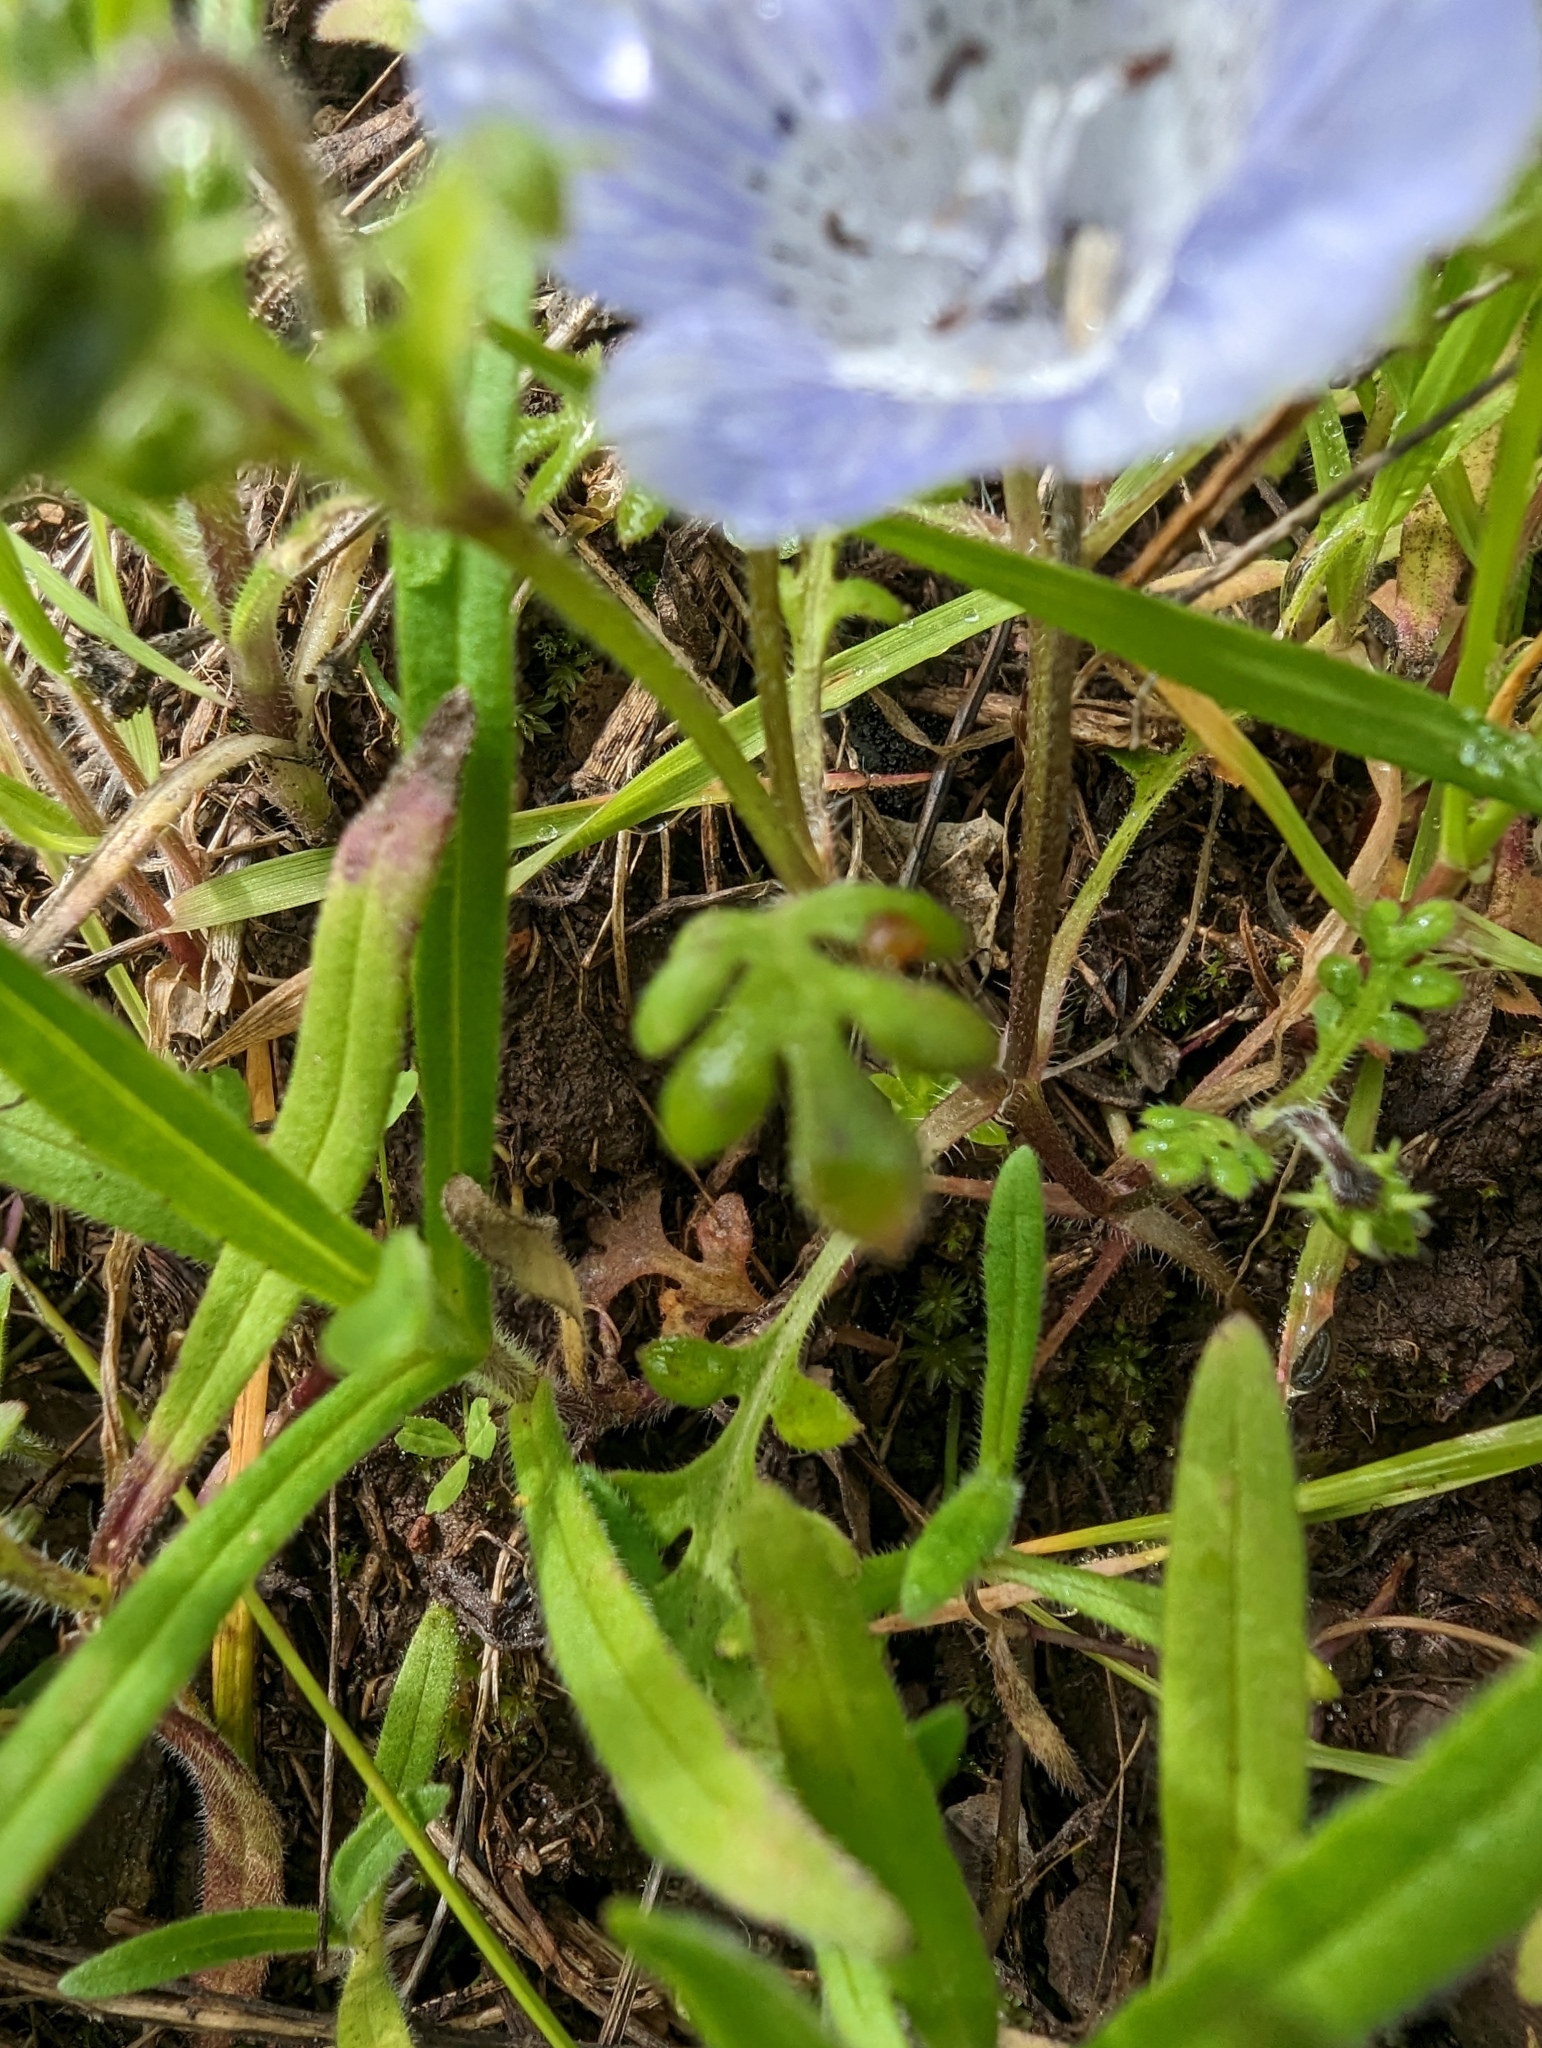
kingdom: Plantae
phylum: Tracheophyta
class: Magnoliopsida
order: Boraginales
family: Hydrophyllaceae
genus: Nemophila
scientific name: Nemophila menziesii
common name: Baby's-blue-eyes
